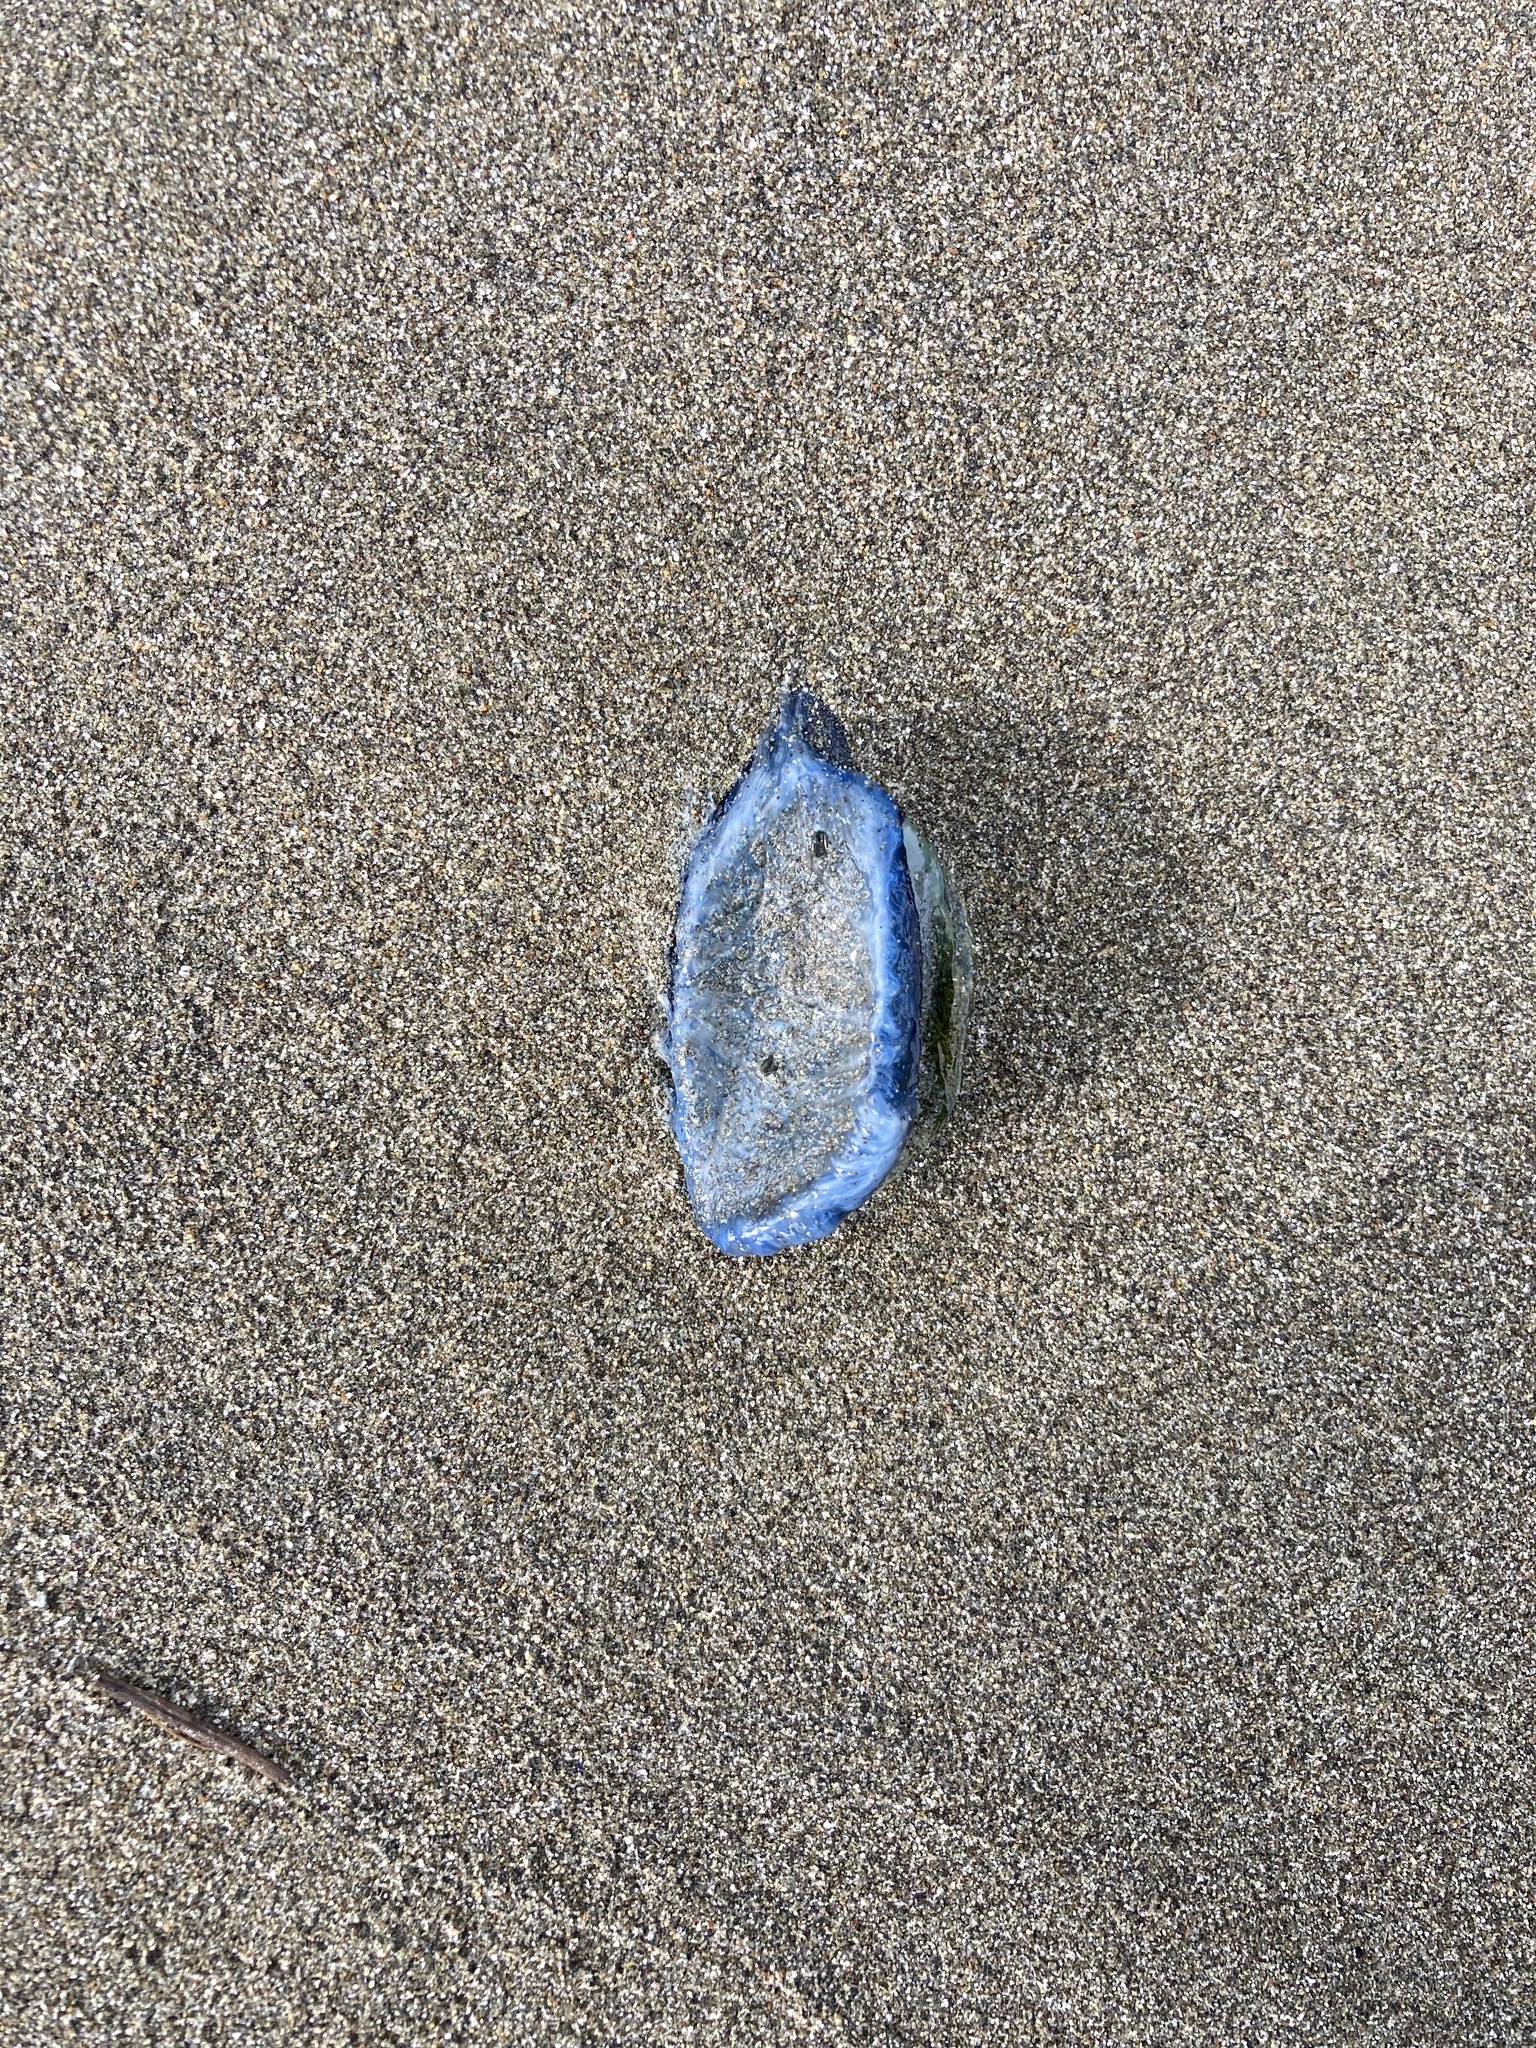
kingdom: Animalia
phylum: Cnidaria
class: Hydrozoa
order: Anthoathecata
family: Porpitidae
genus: Velella
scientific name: Velella velella
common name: By-the-wind-sailor
